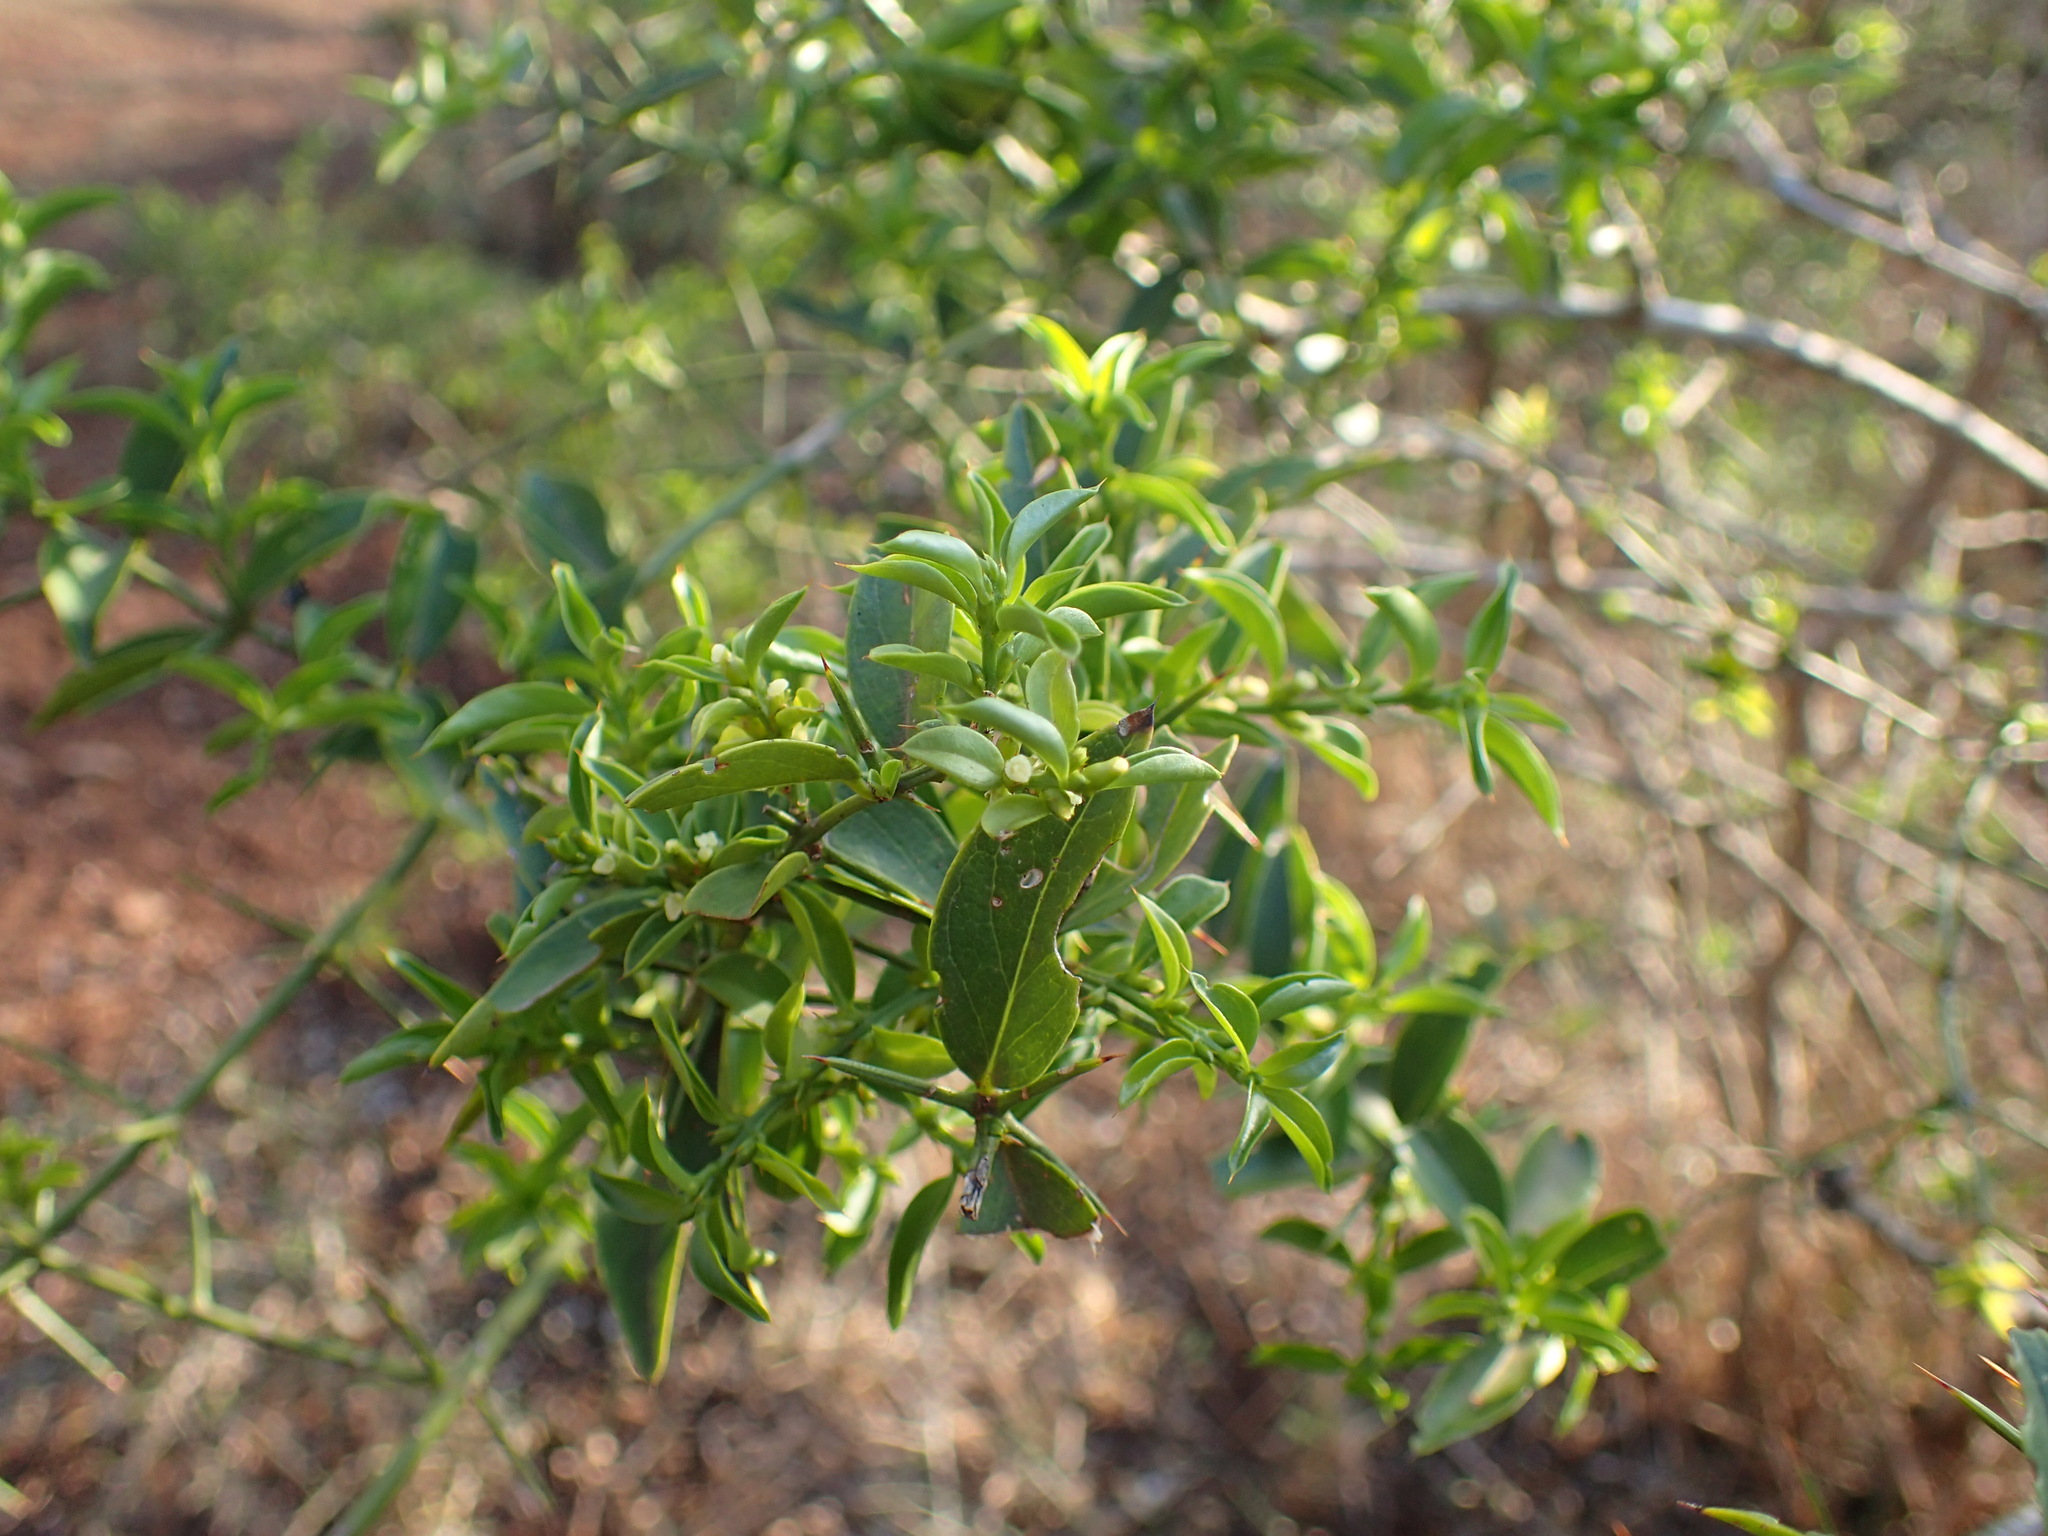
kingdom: Plantae
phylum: Tracheophyta
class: Magnoliopsida
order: Brassicales
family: Salvadoraceae
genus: Azima
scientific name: Azima tetracantha
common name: Needle bush
